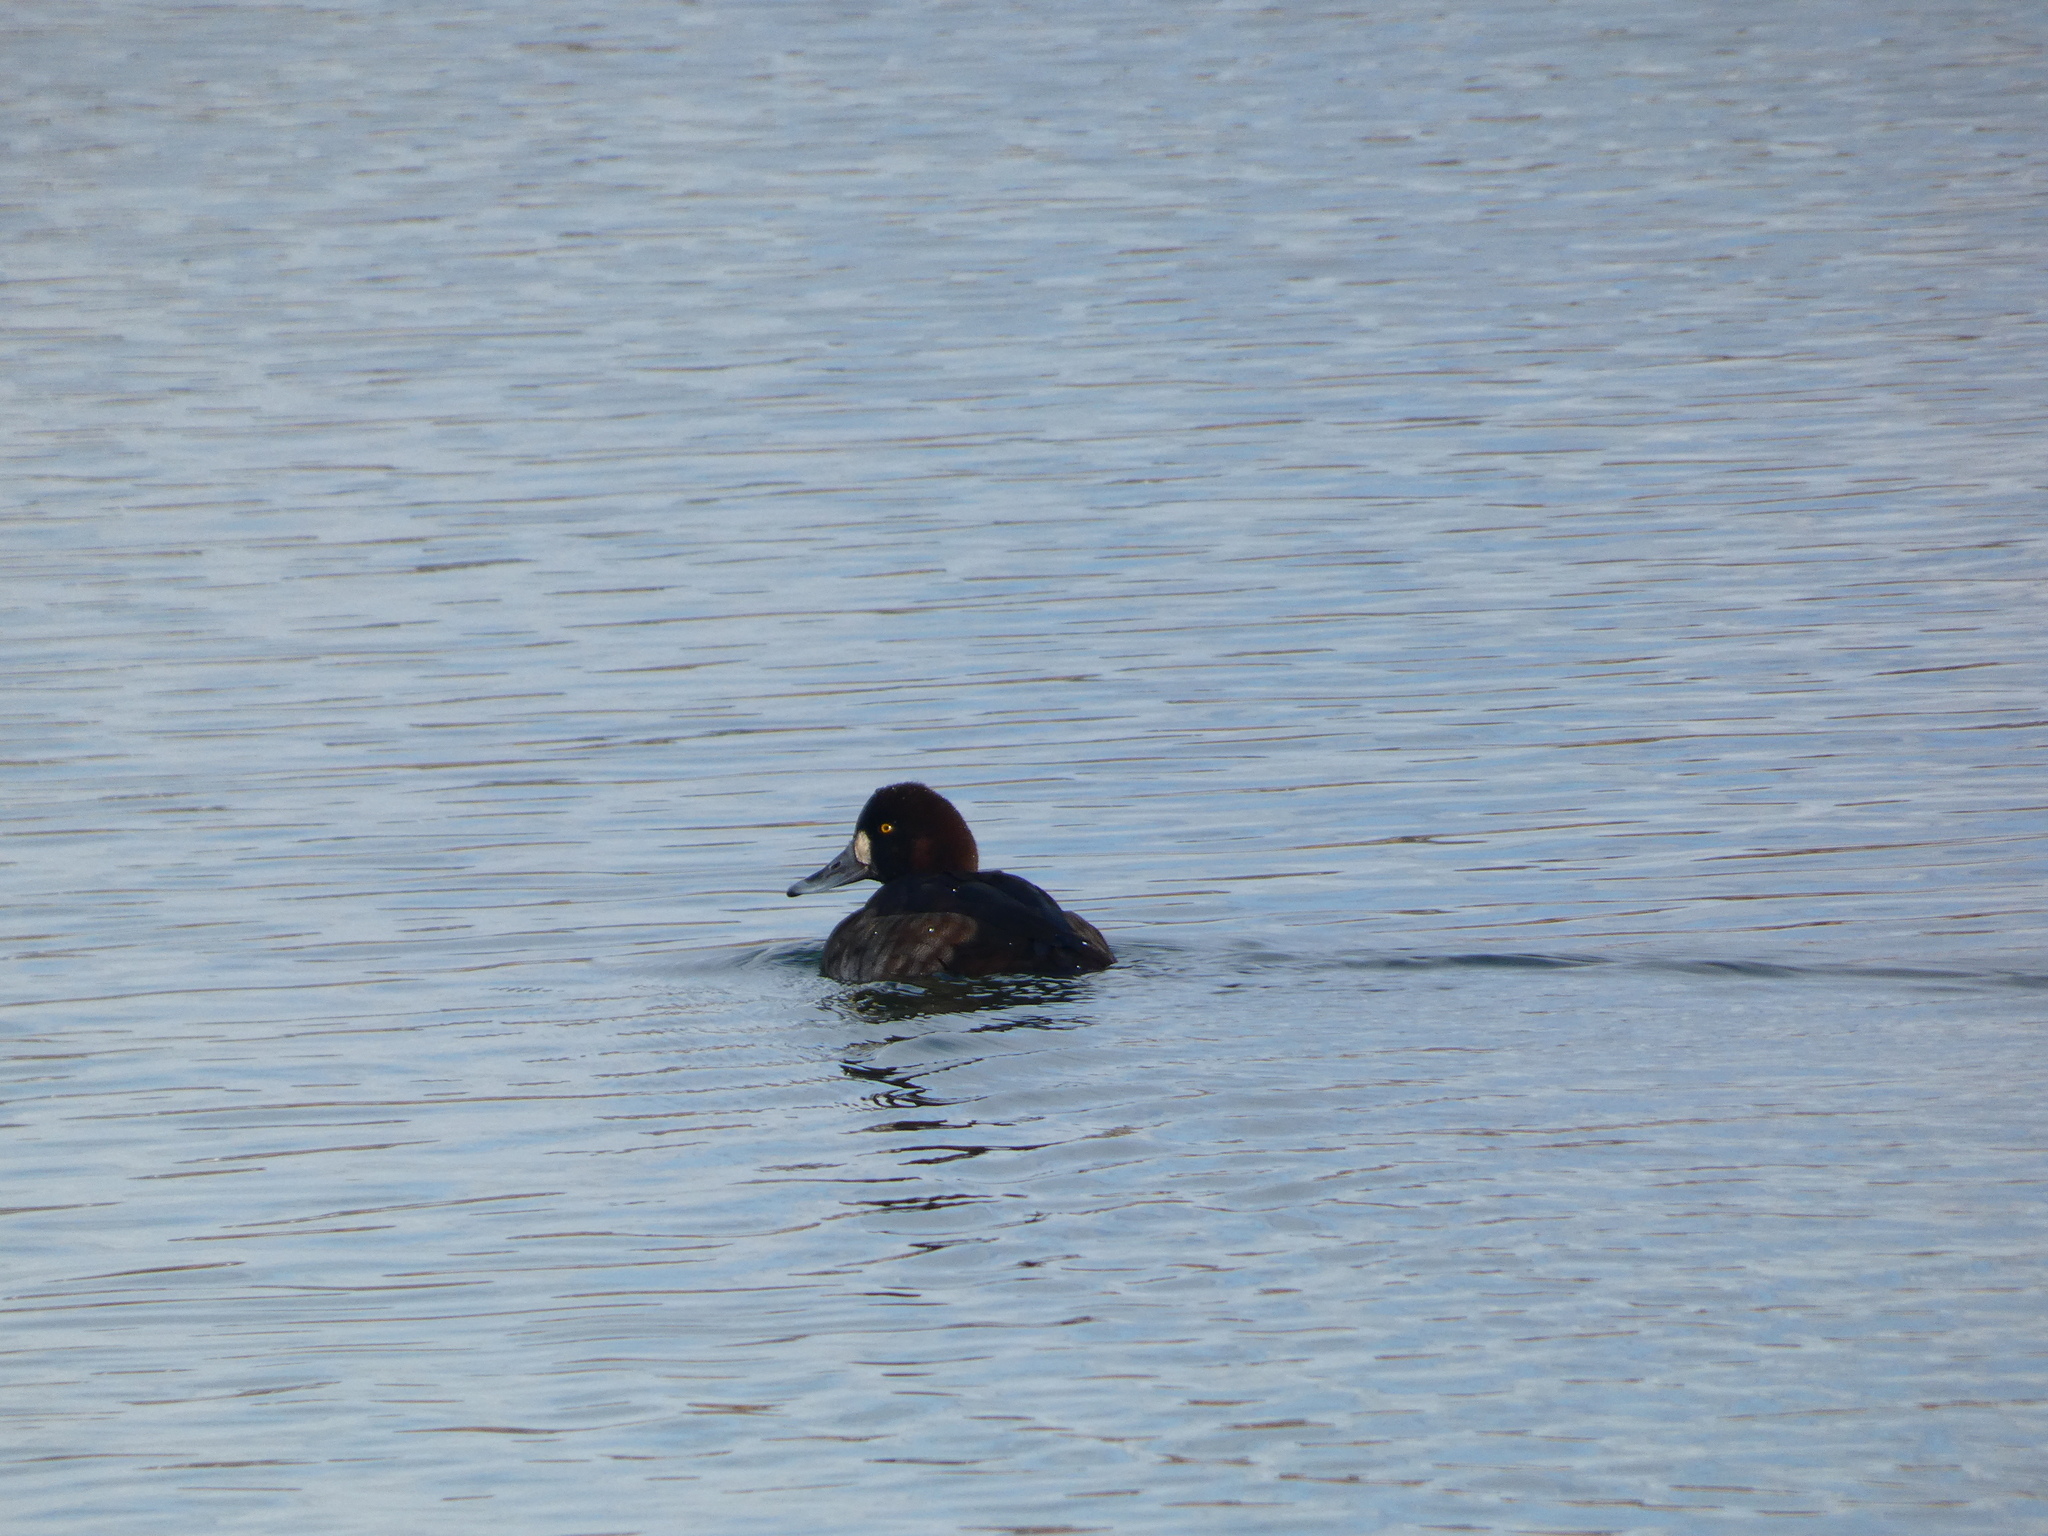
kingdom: Animalia
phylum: Chordata
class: Aves
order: Anseriformes
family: Anatidae
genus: Aythya
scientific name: Aythya marila
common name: Greater scaup
